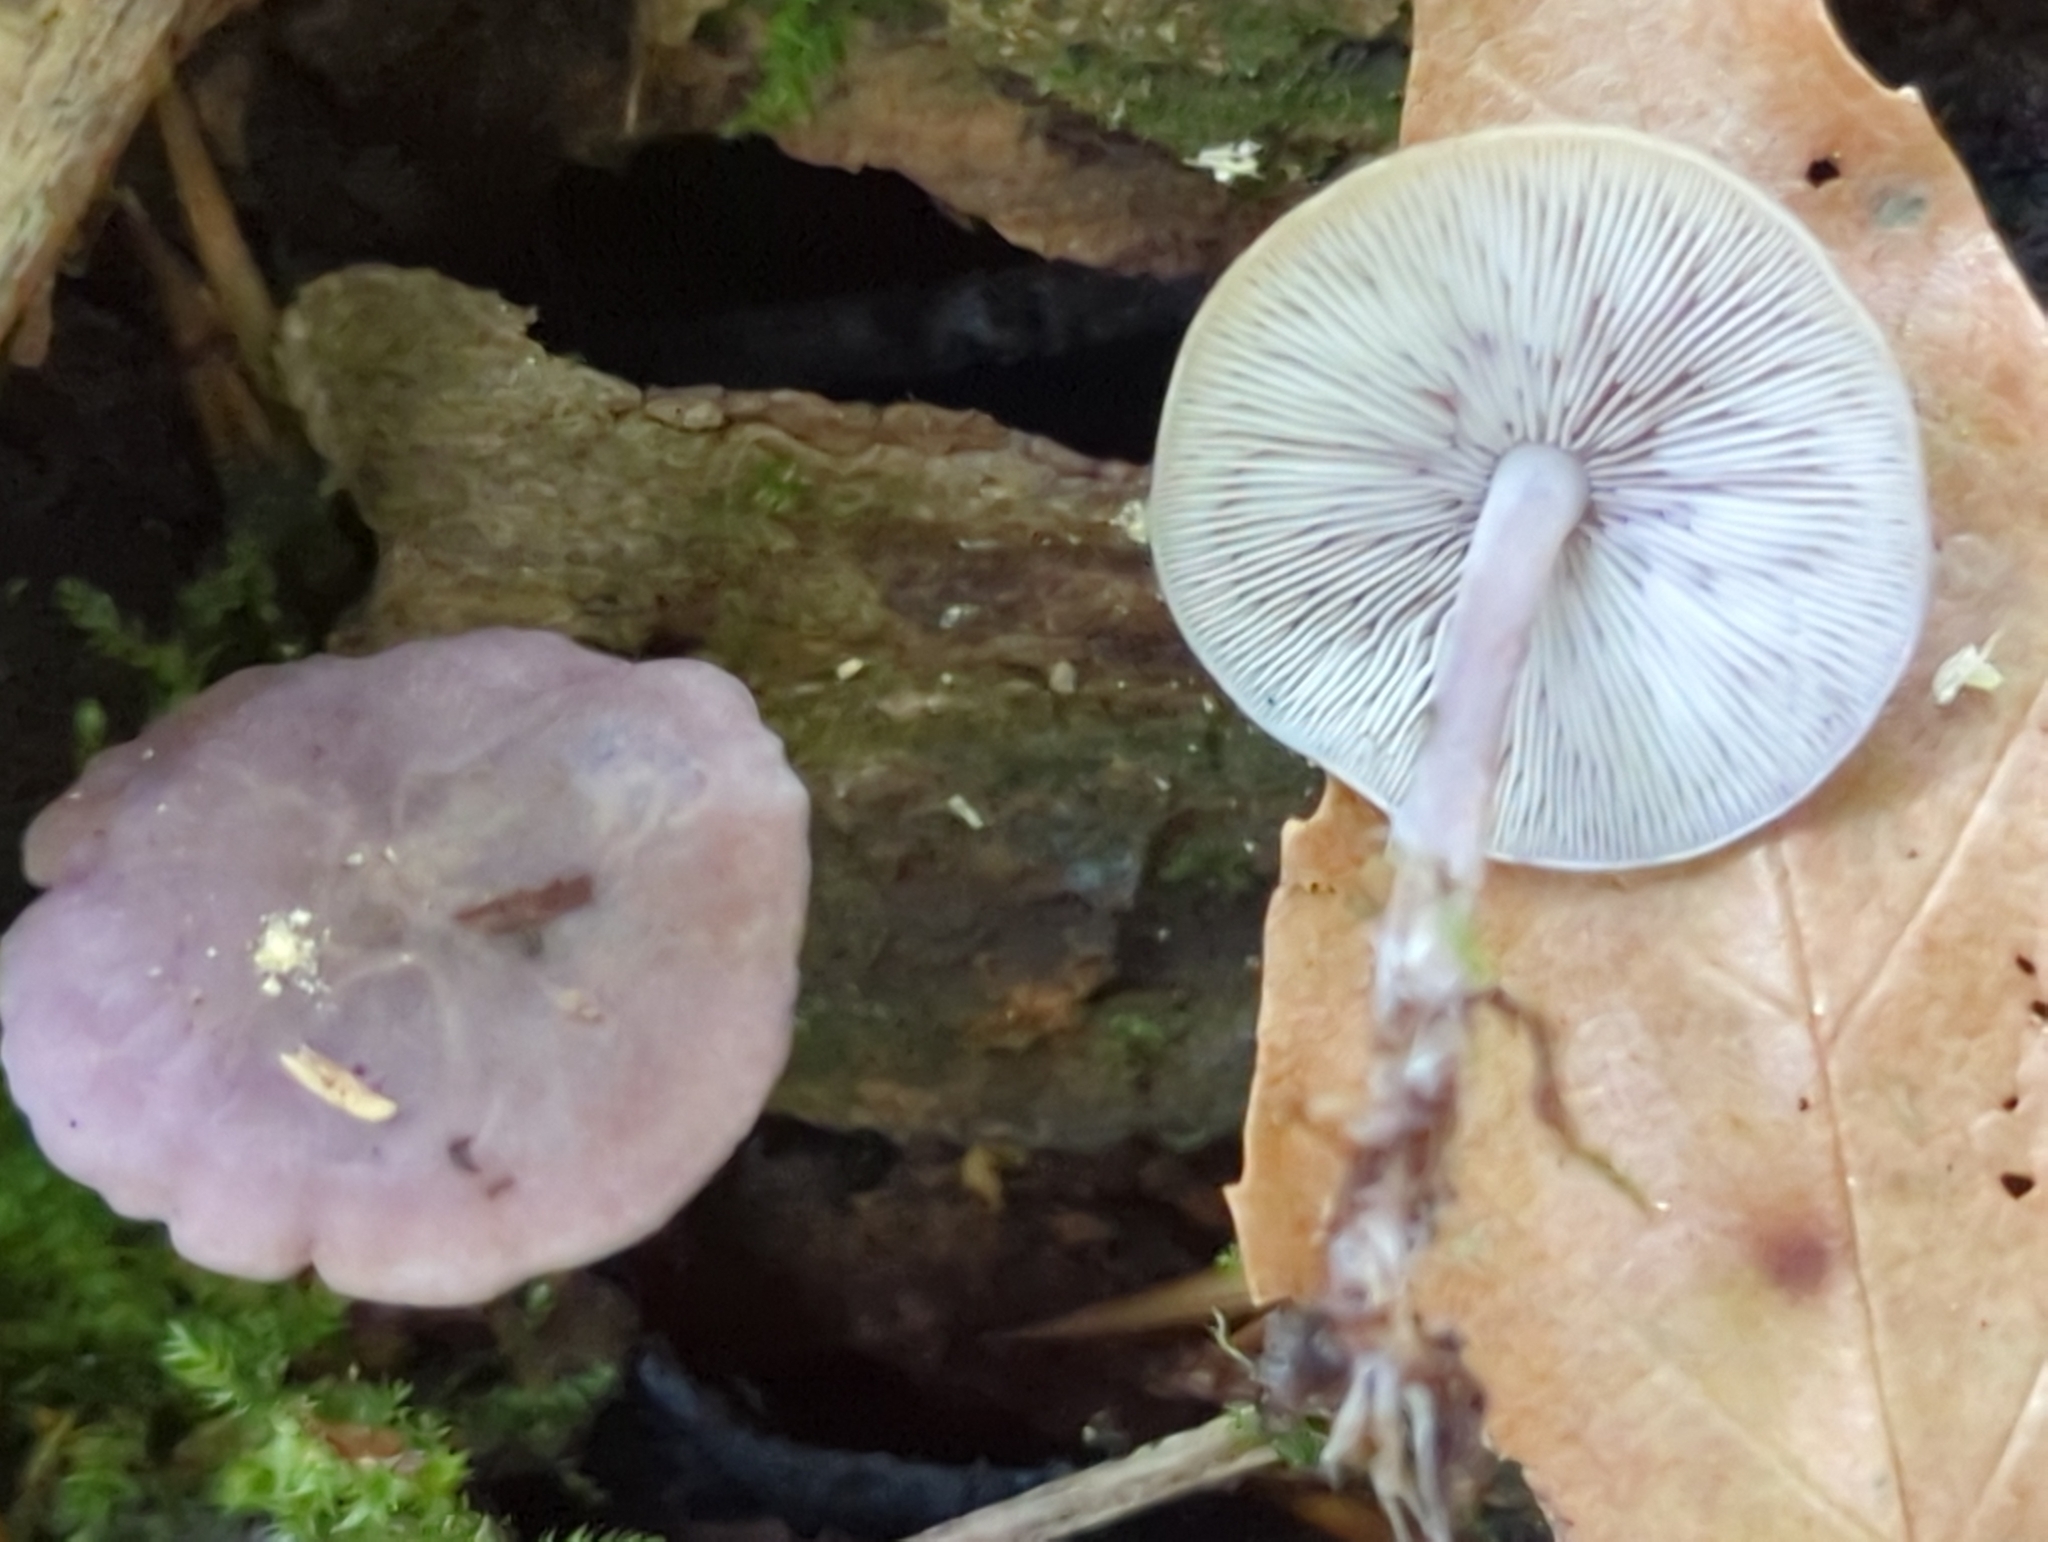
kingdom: Fungi
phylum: Basidiomycota
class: Agaricomycetes
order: Agaricales
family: Marasmiaceae
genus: Baeospora
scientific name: Baeospora myriadophylla
